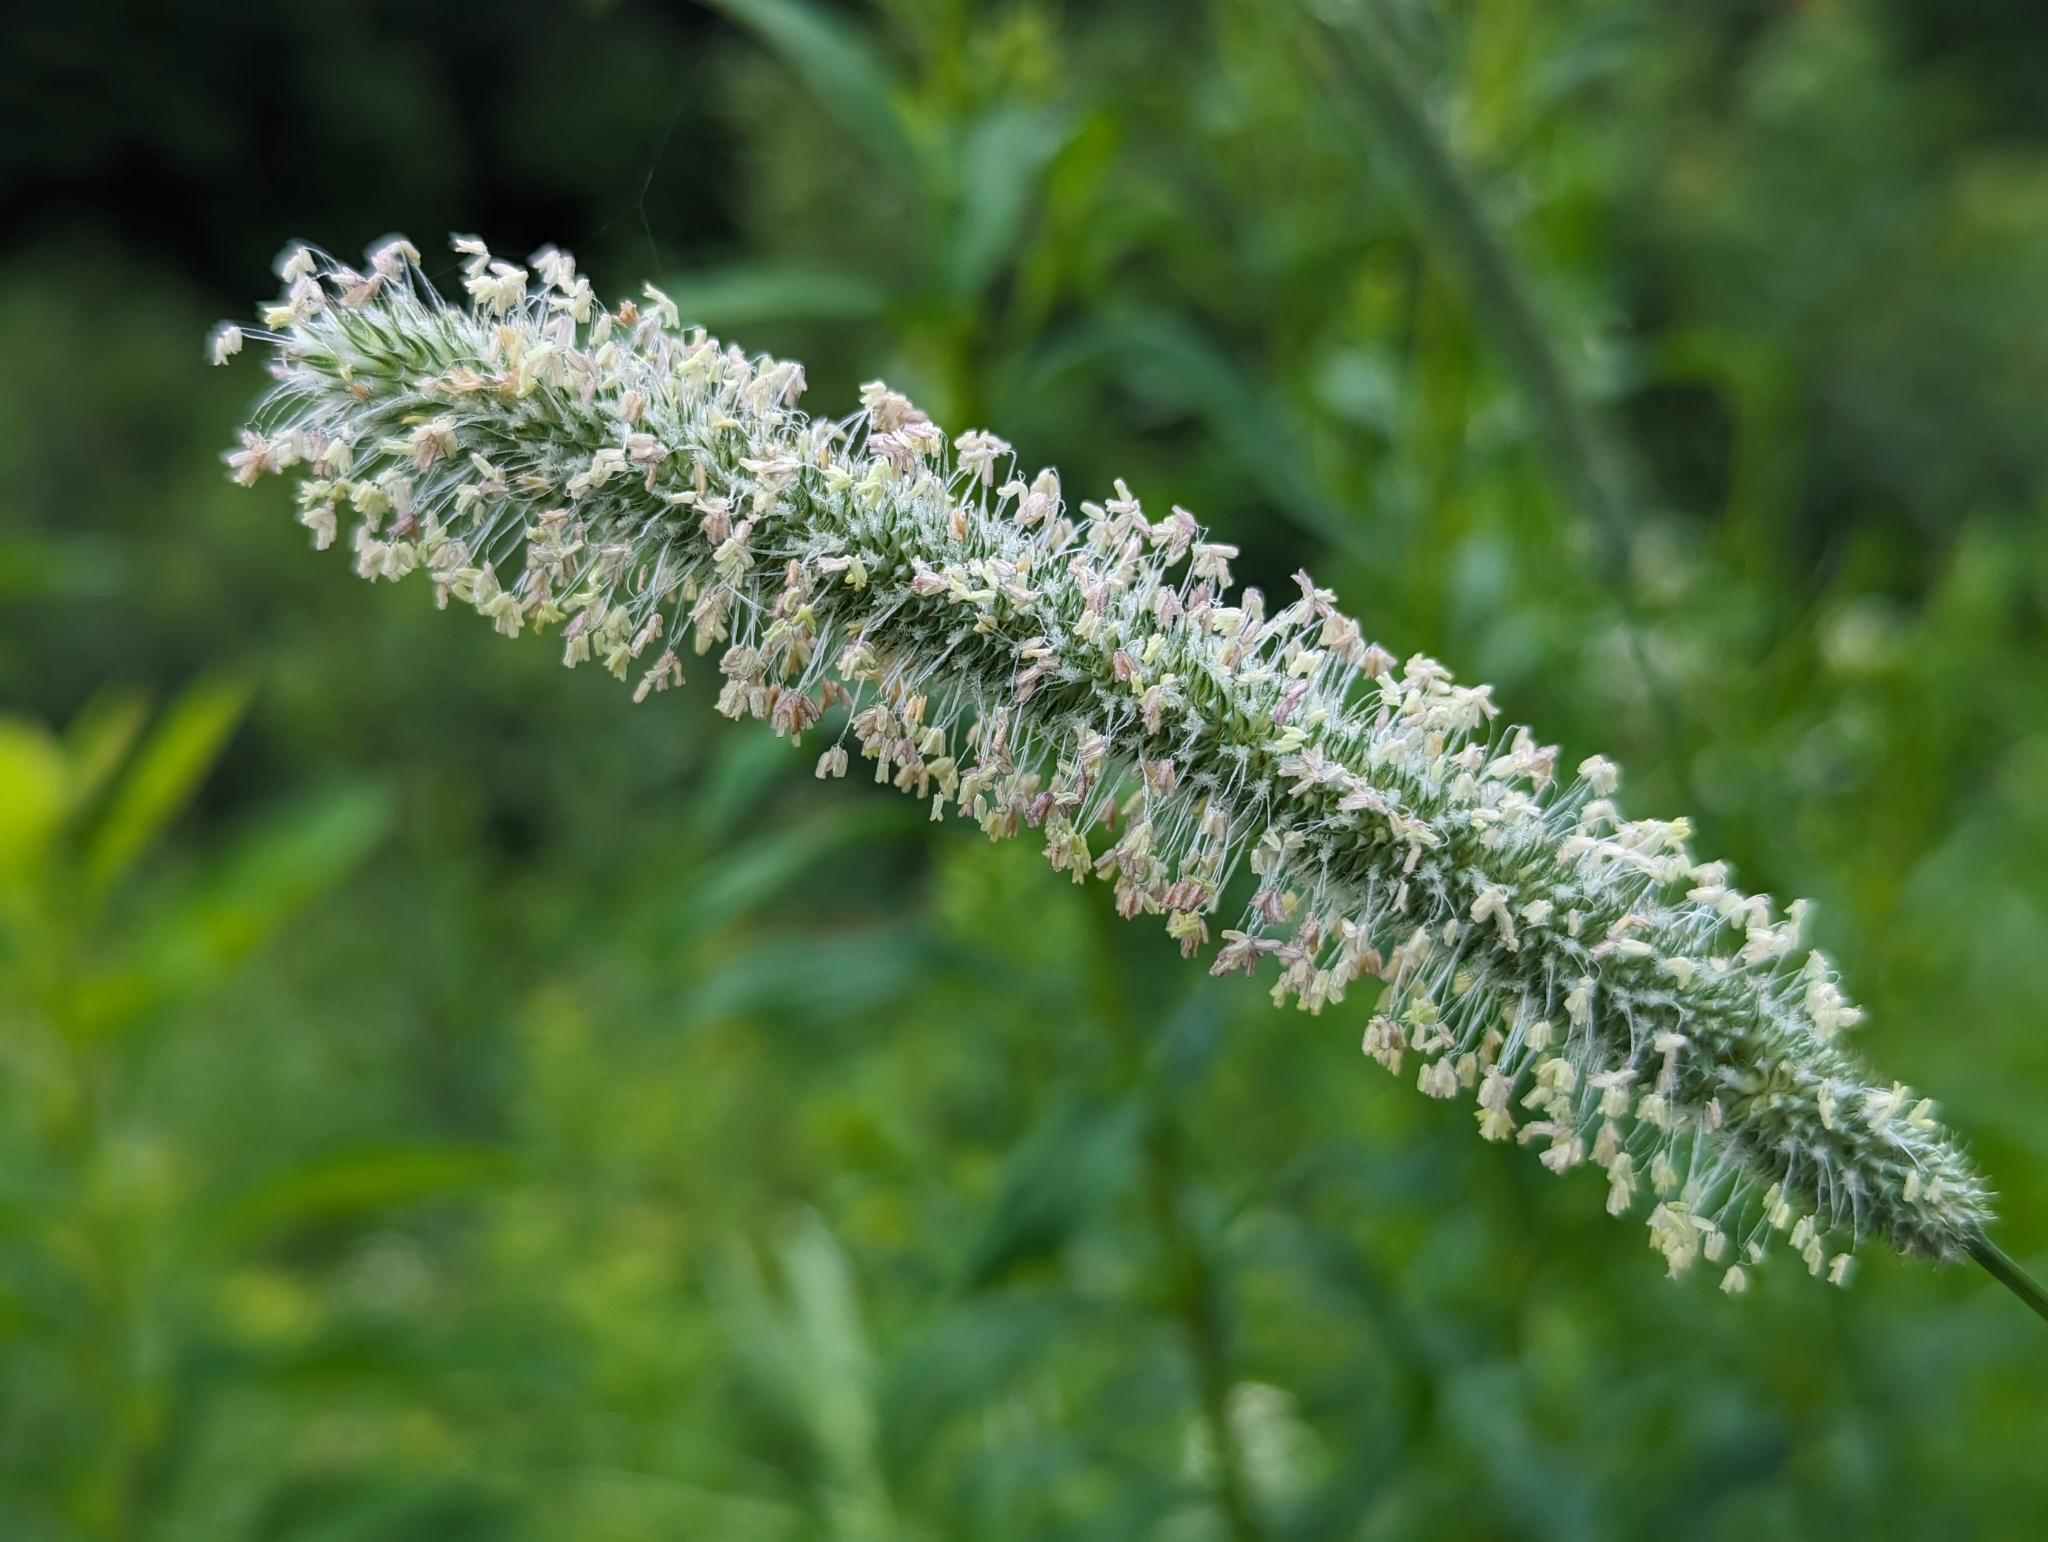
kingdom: Plantae
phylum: Tracheophyta
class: Liliopsida
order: Poales
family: Poaceae
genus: Phleum
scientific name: Phleum pratense
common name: Timothy grass
